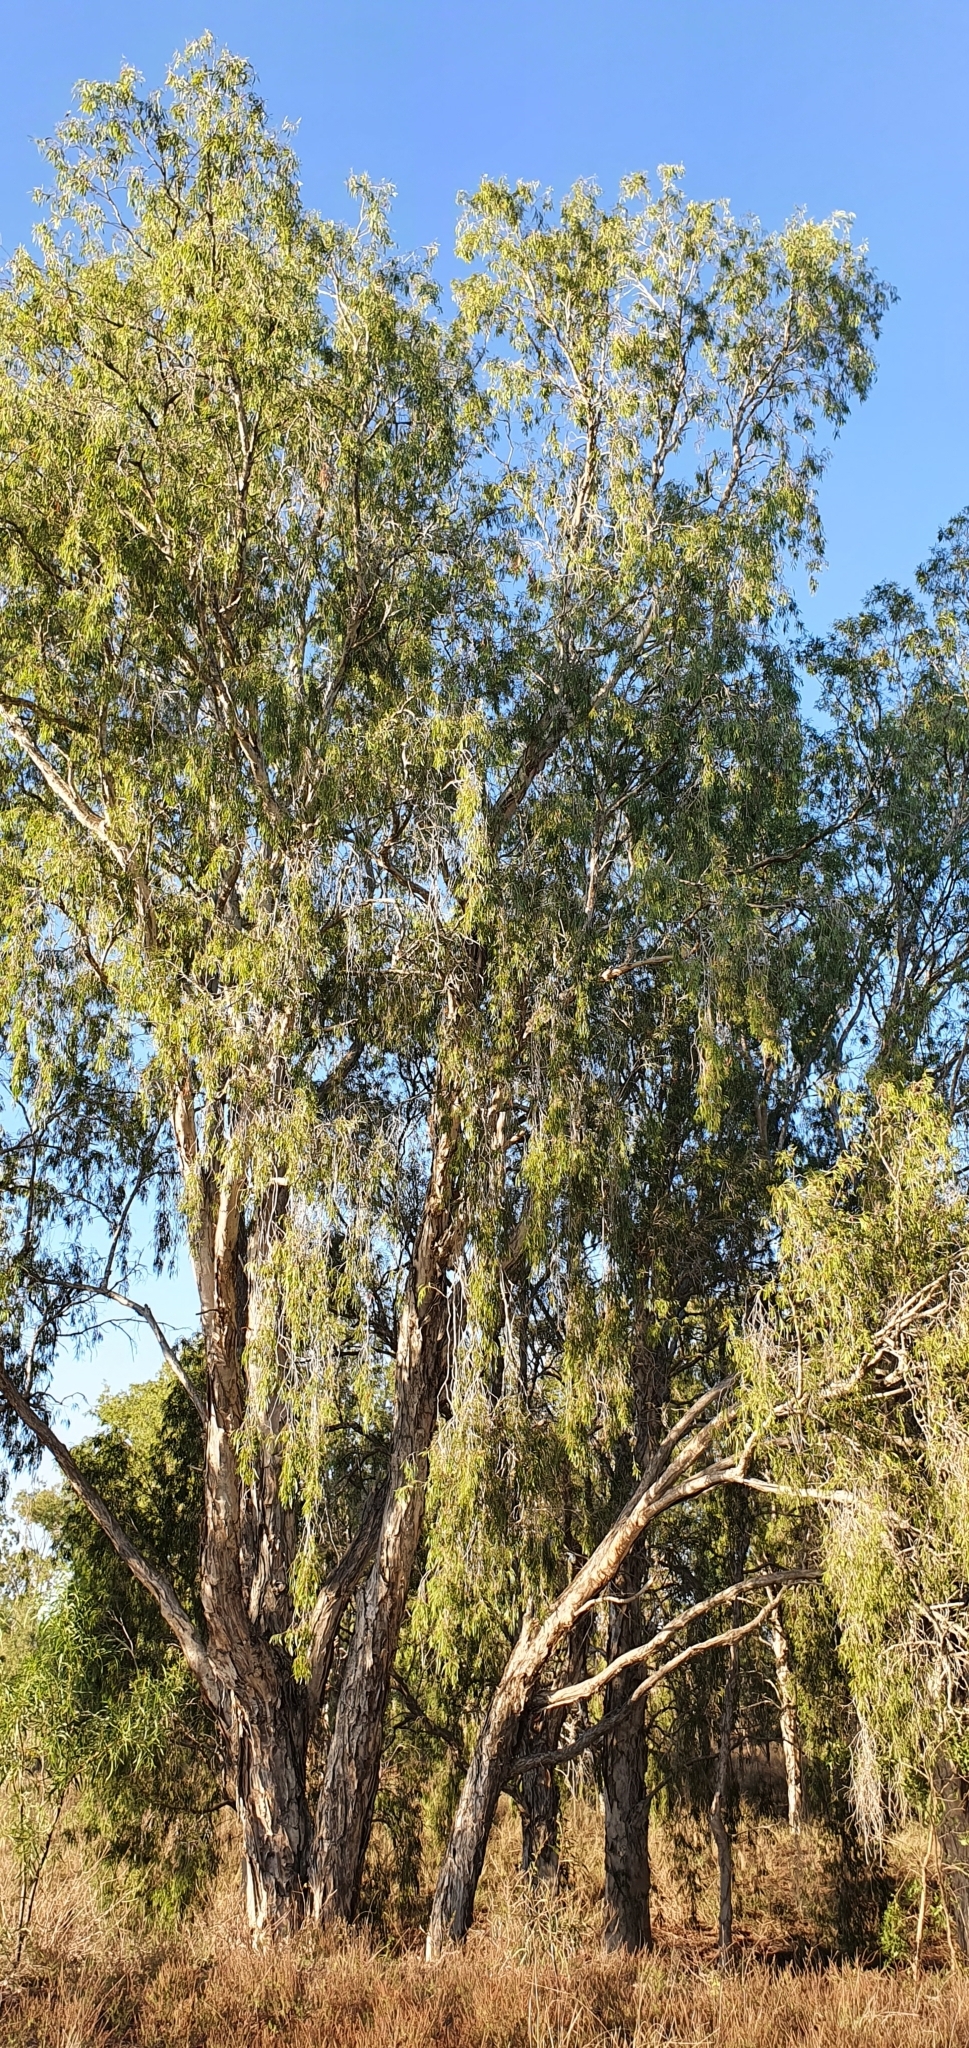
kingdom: Plantae
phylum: Tracheophyta
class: Magnoliopsida
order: Myrtales
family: Myrtaceae
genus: Melaleuca
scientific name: Melaleuca fluviatilis
